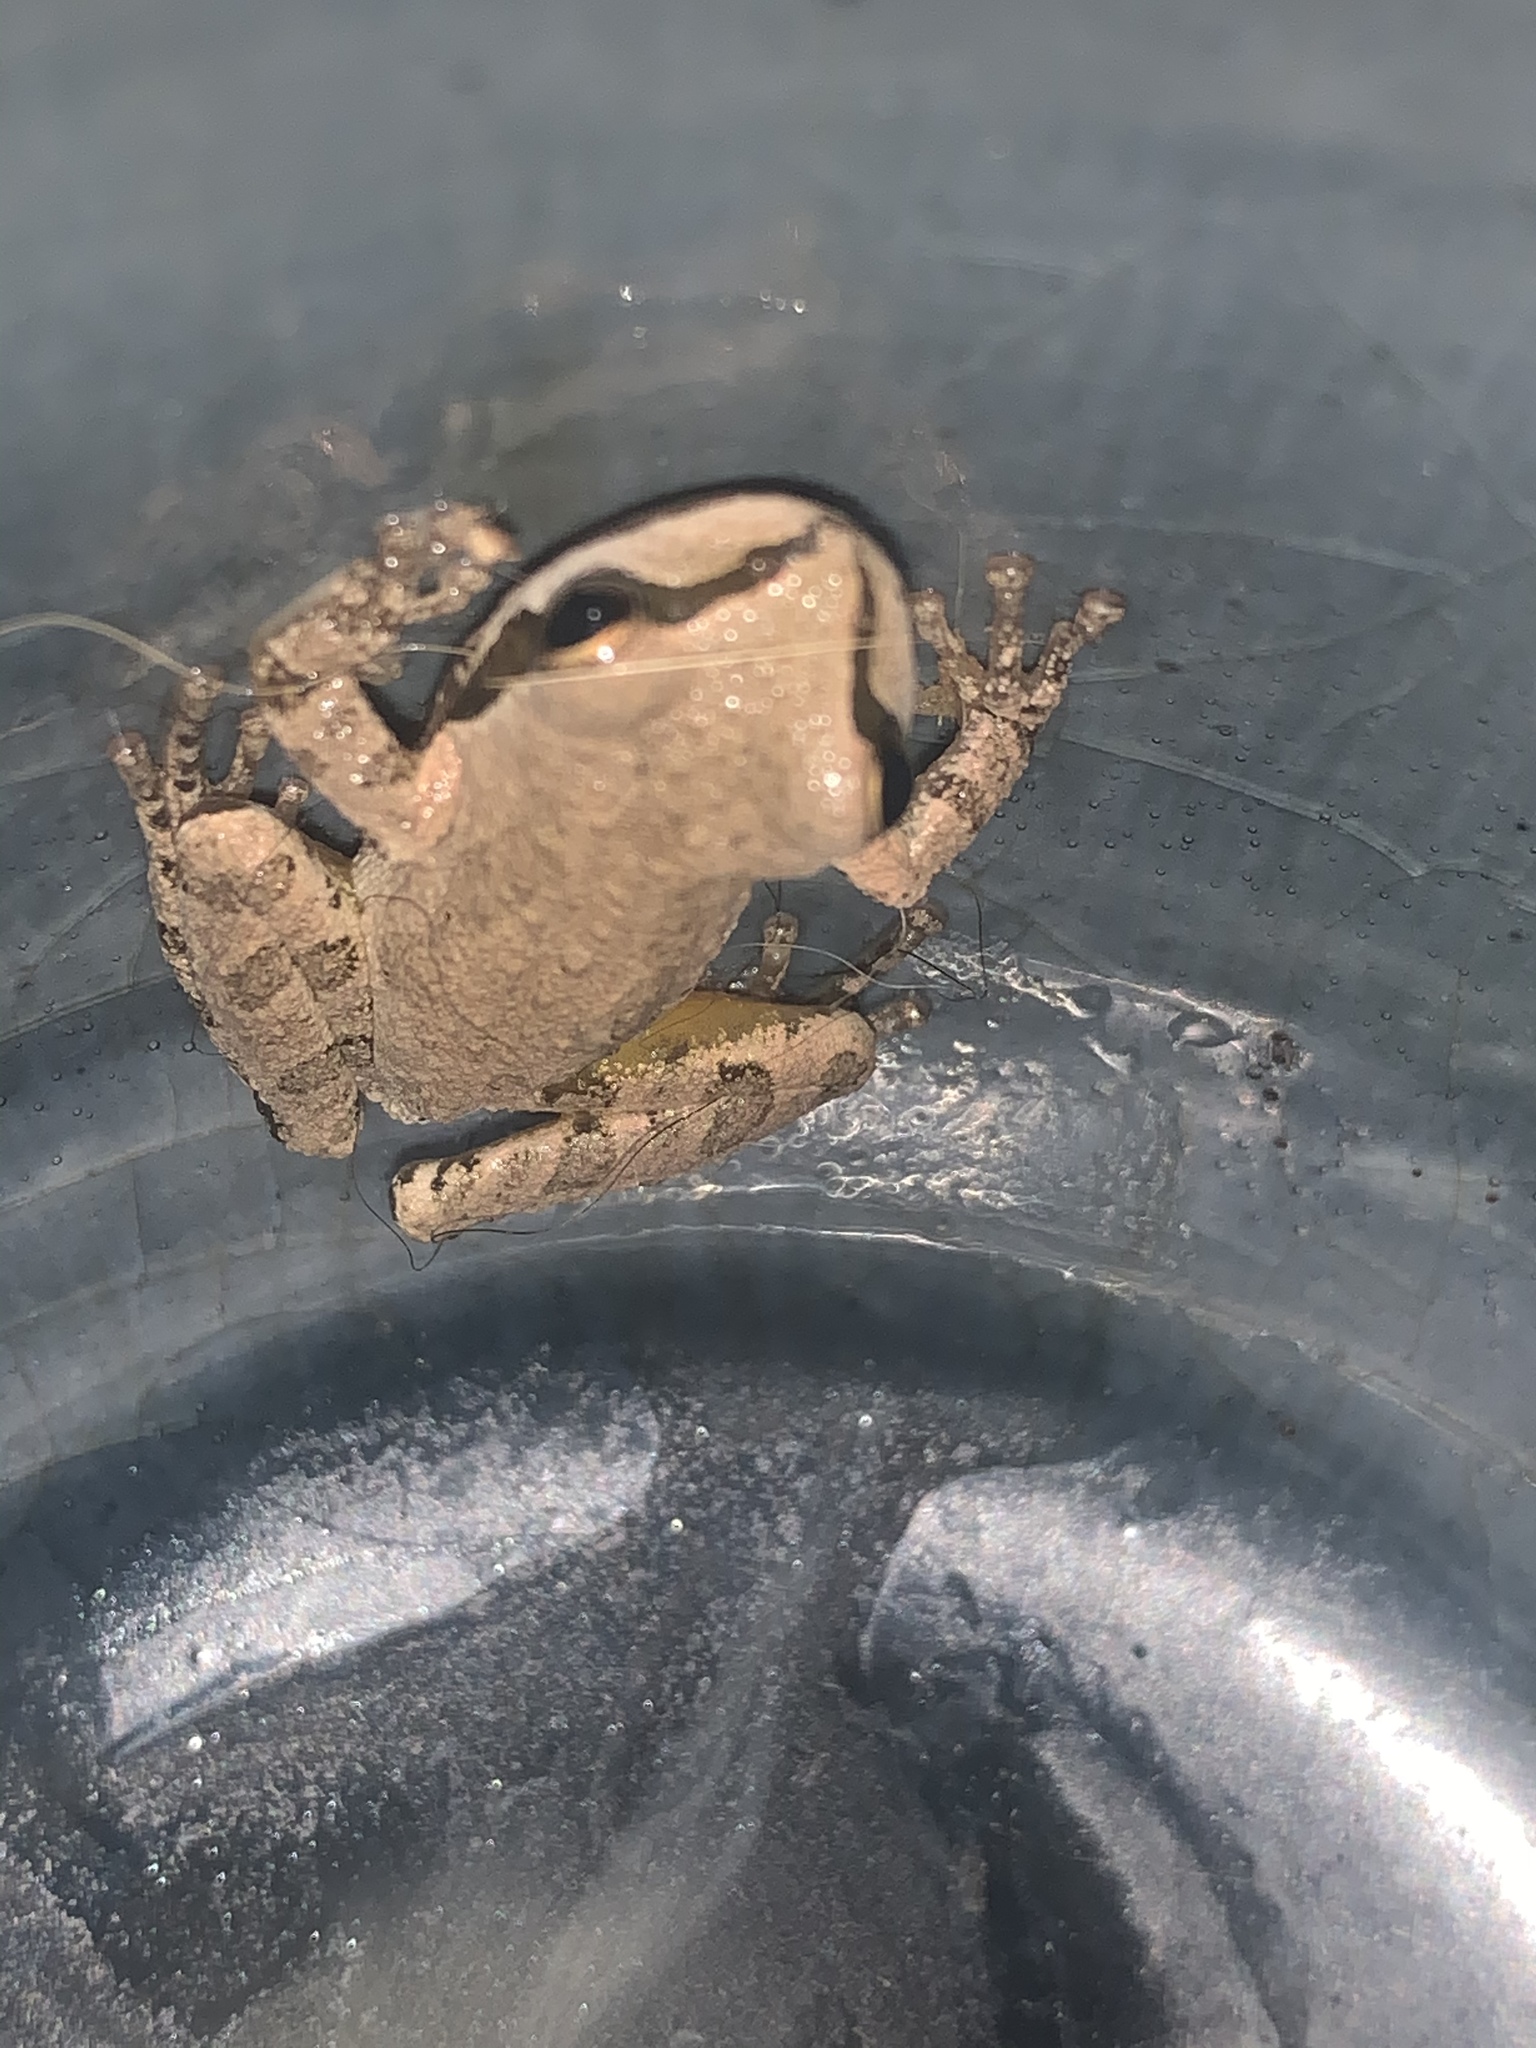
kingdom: Animalia
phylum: Chordata
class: Amphibia
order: Anura
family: Hylidae
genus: Pseudacris
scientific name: Pseudacris regilla
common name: Pacific chorus frog
